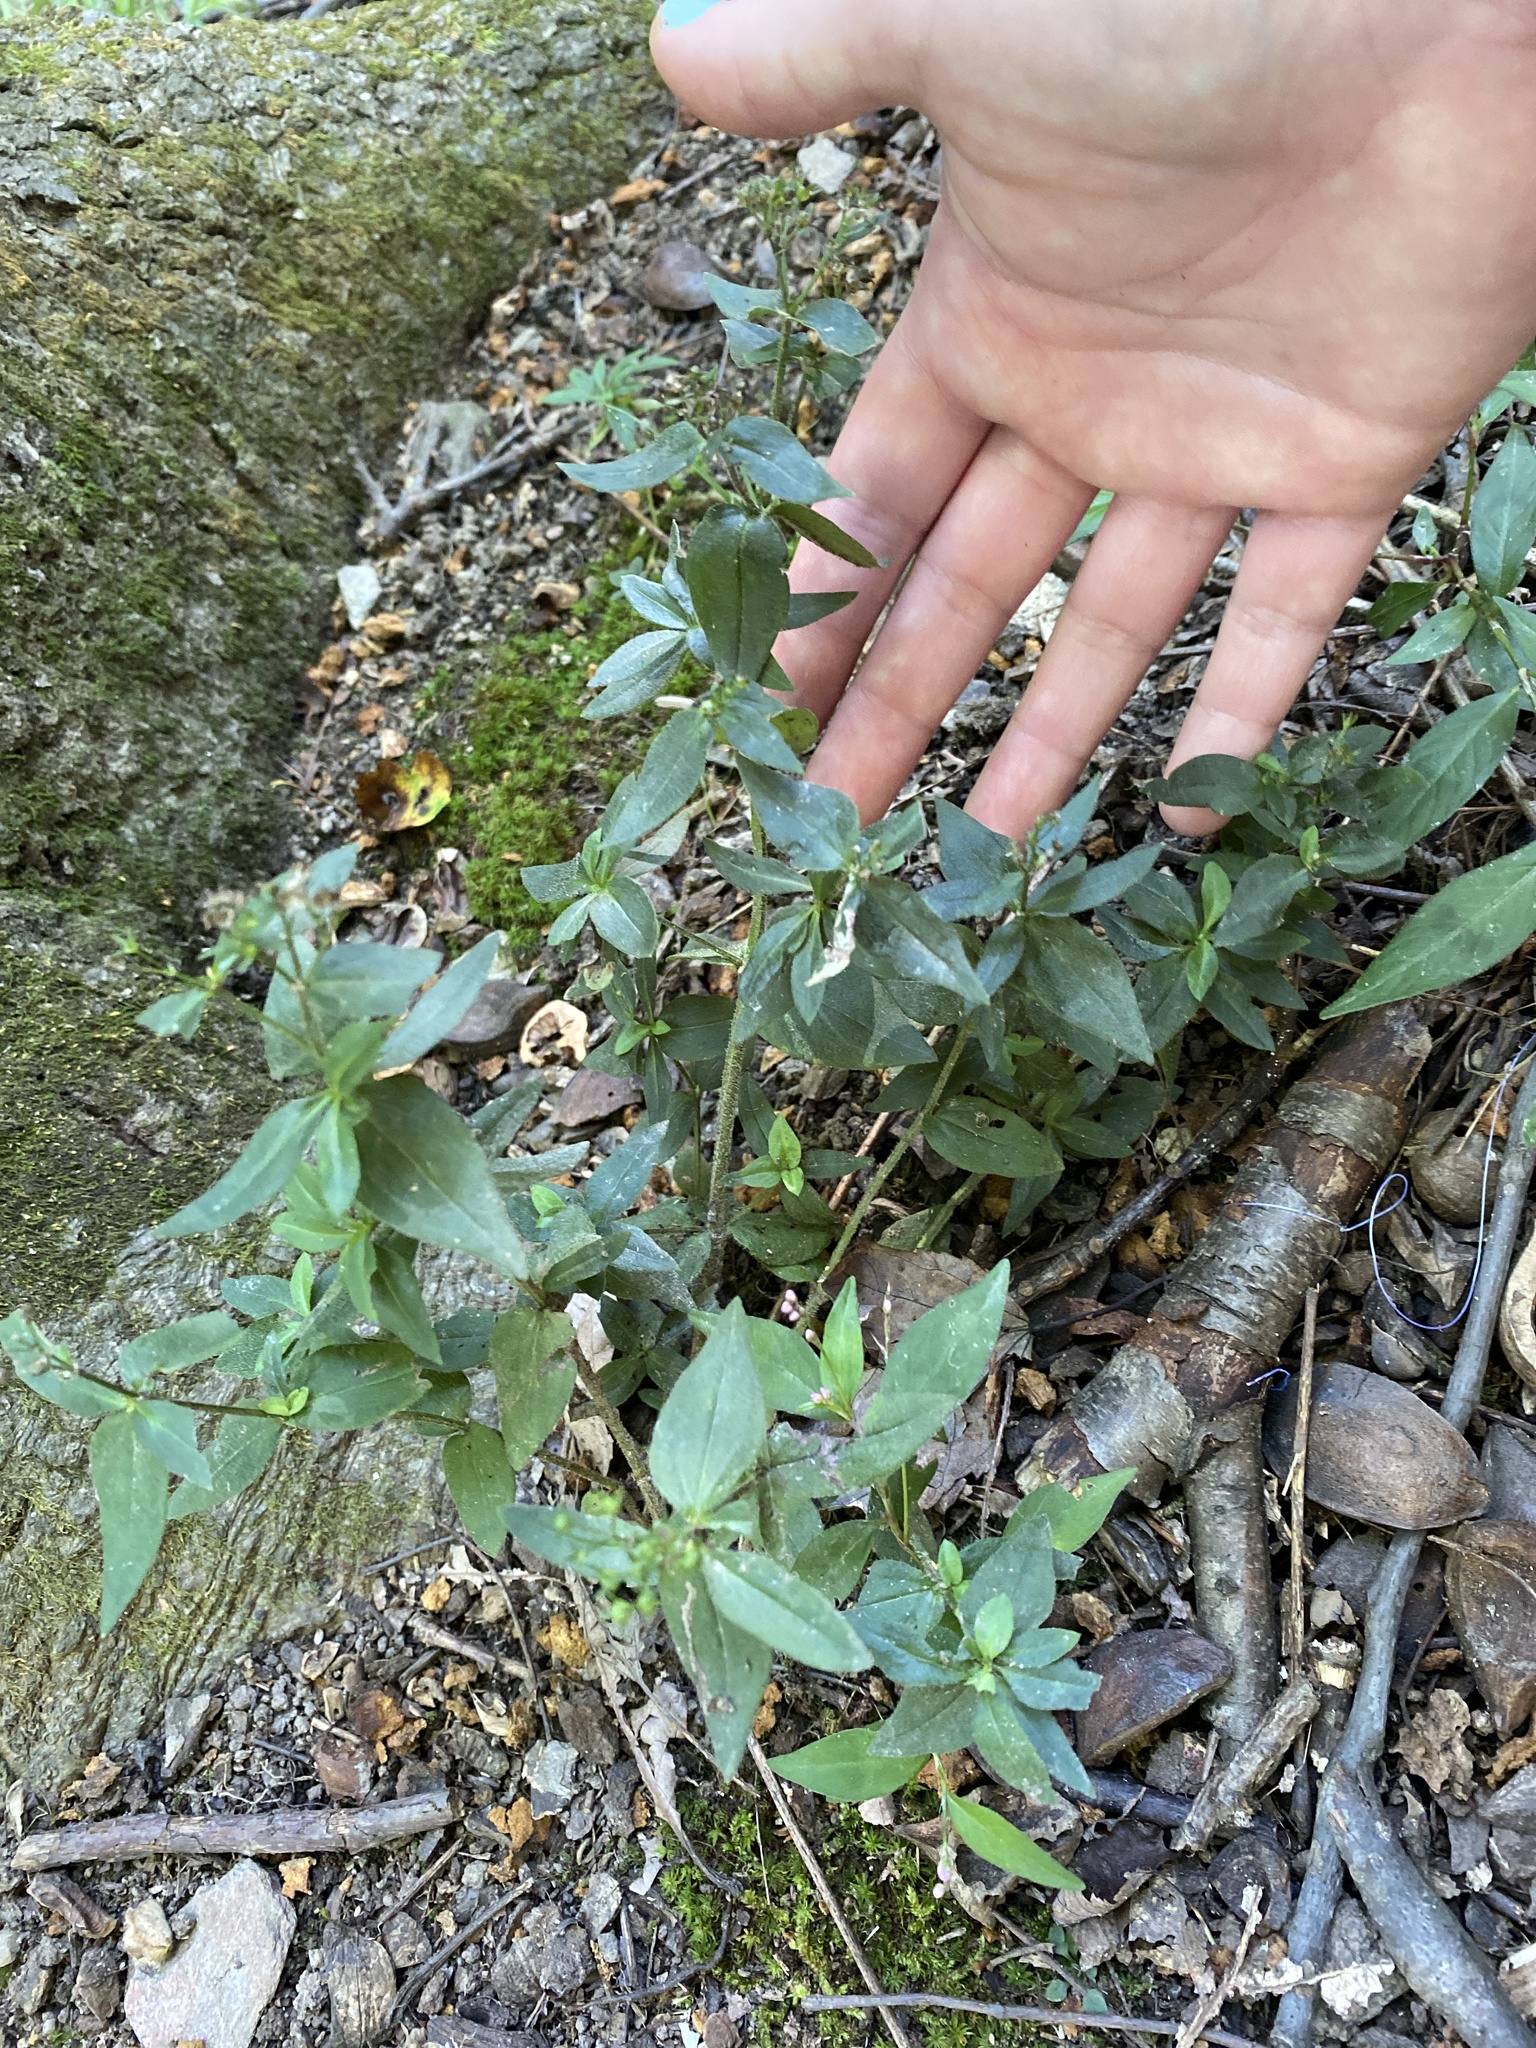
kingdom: Plantae
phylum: Tracheophyta
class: Magnoliopsida
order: Gentianales
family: Rubiaceae
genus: Houstonia
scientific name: Houstonia purpurea
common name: Summer bluet
